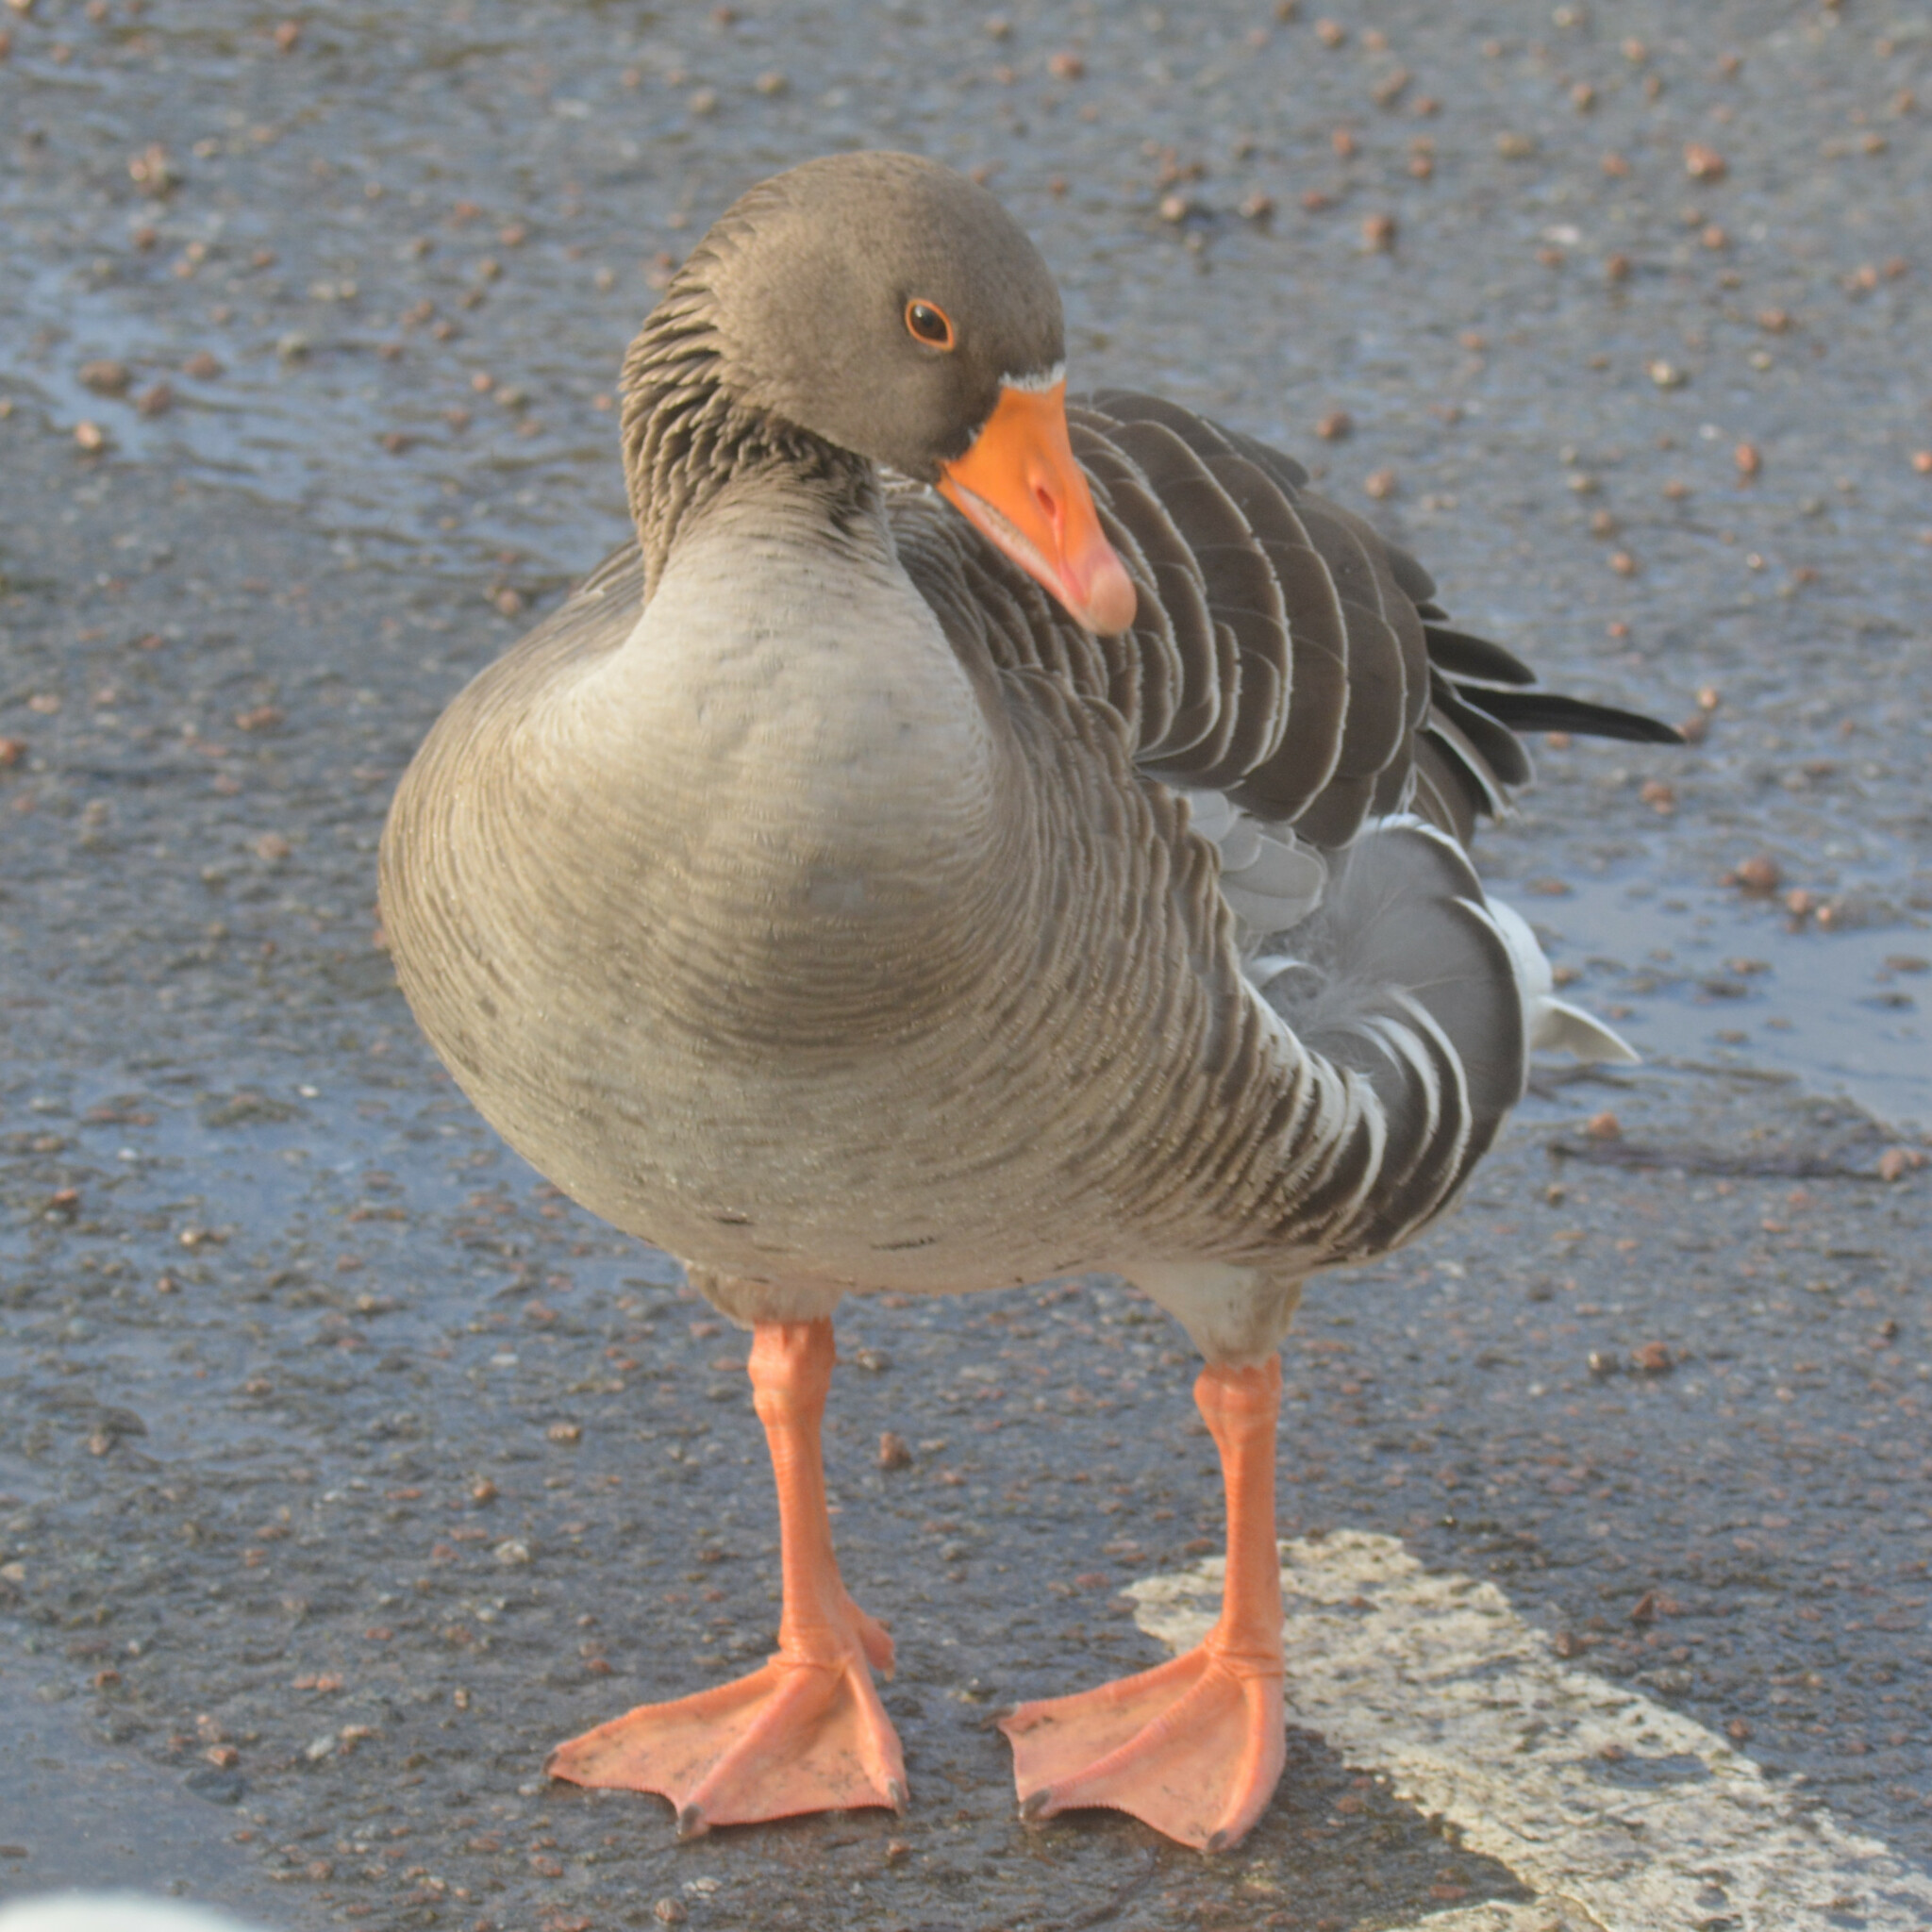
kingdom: Animalia
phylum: Chordata
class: Aves
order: Anseriformes
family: Anatidae
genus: Anser
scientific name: Anser anser
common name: Greylag goose
